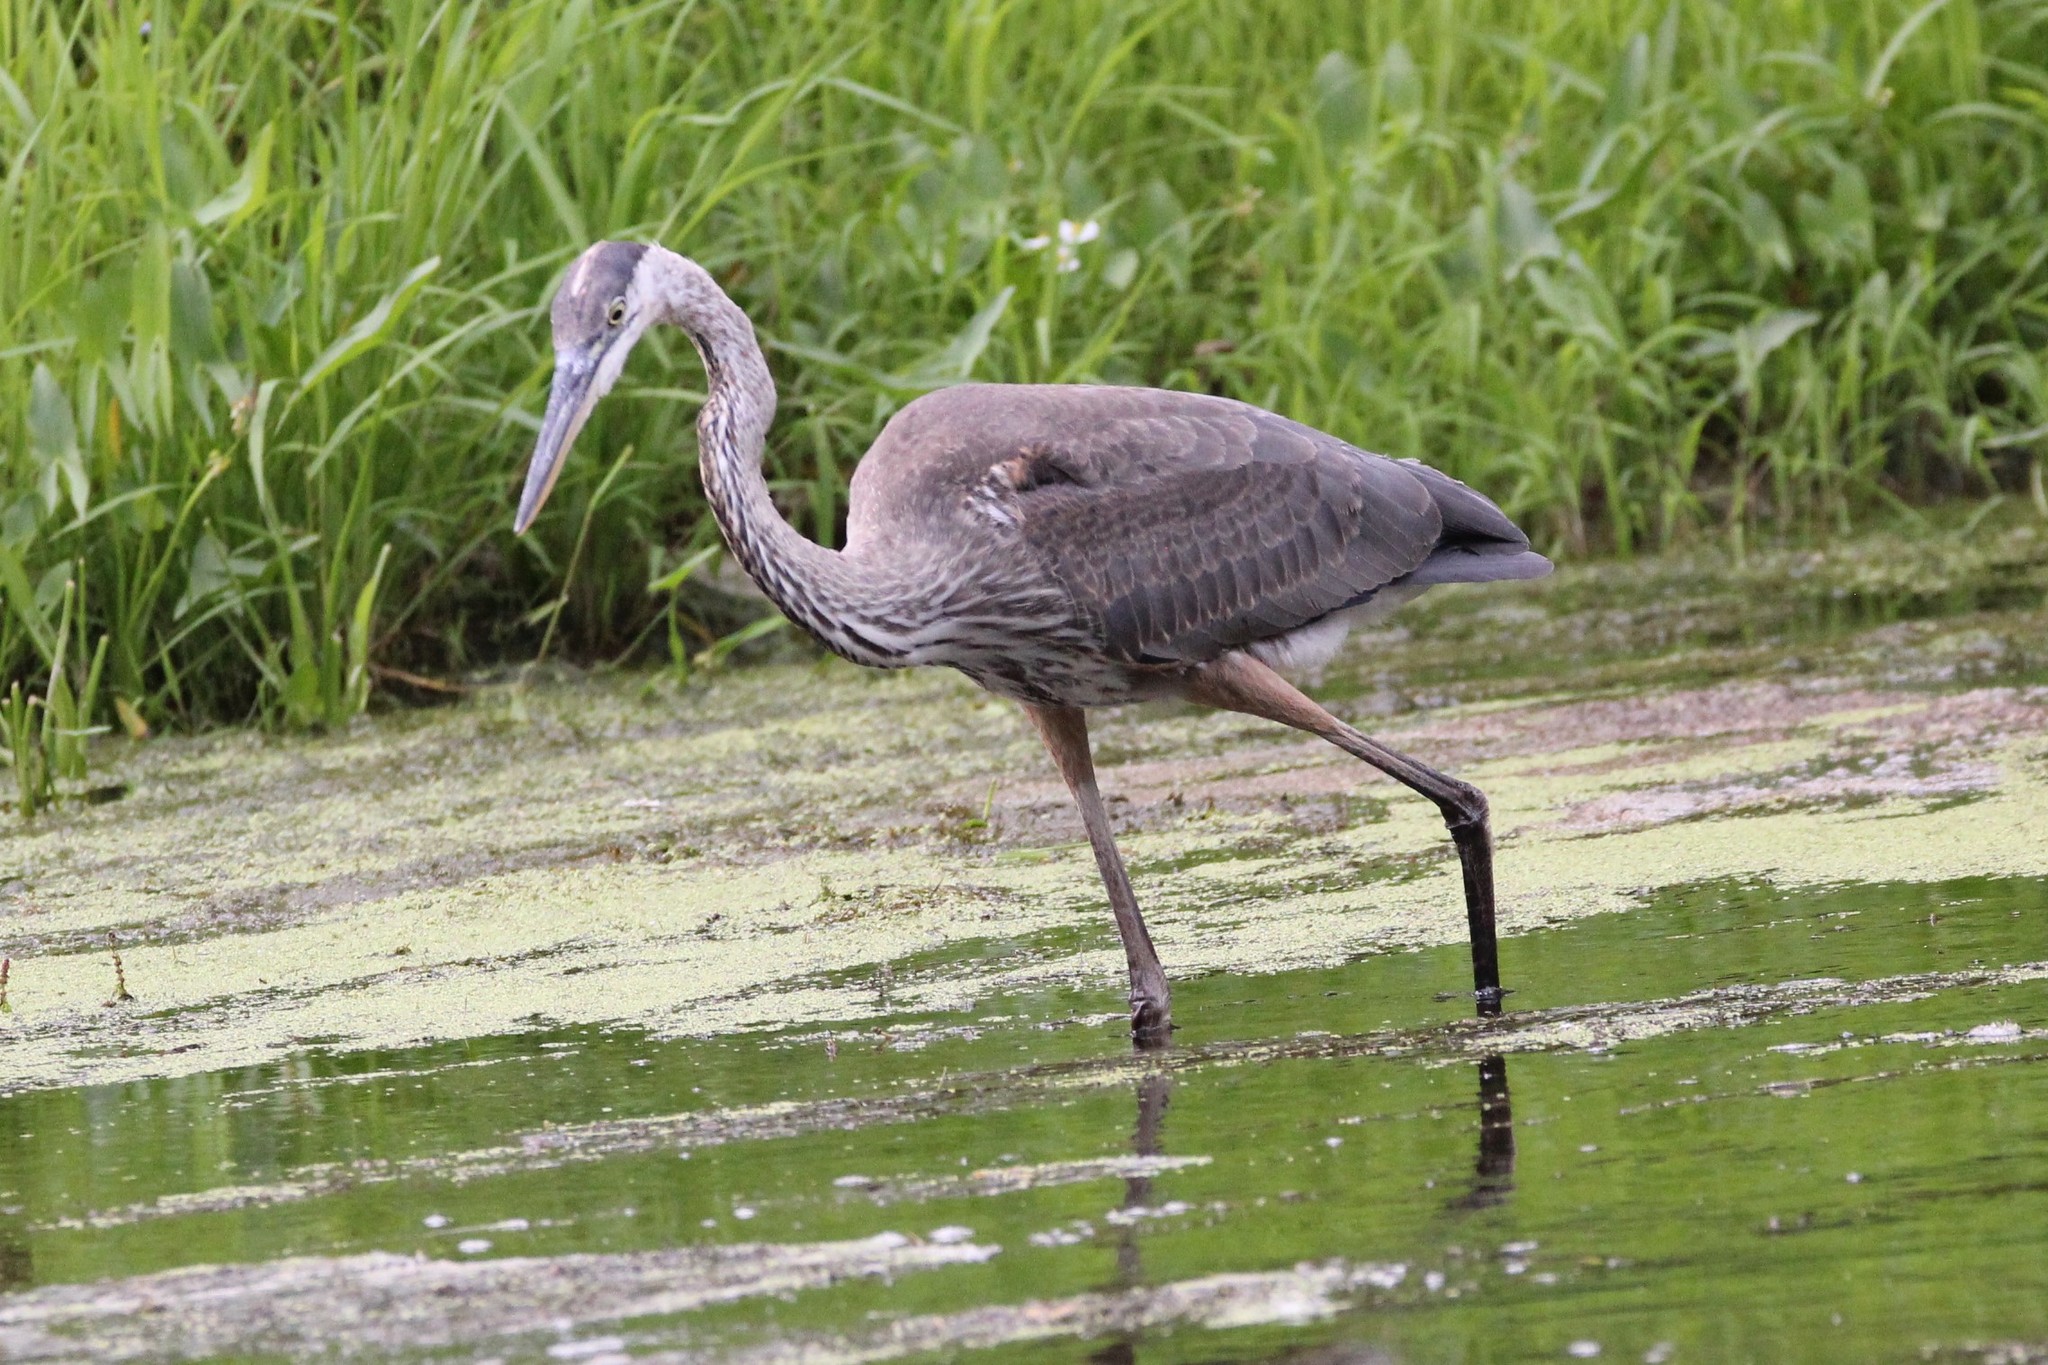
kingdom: Animalia
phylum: Chordata
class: Aves
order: Pelecaniformes
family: Ardeidae
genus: Ardea
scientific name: Ardea herodias
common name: Great blue heron
